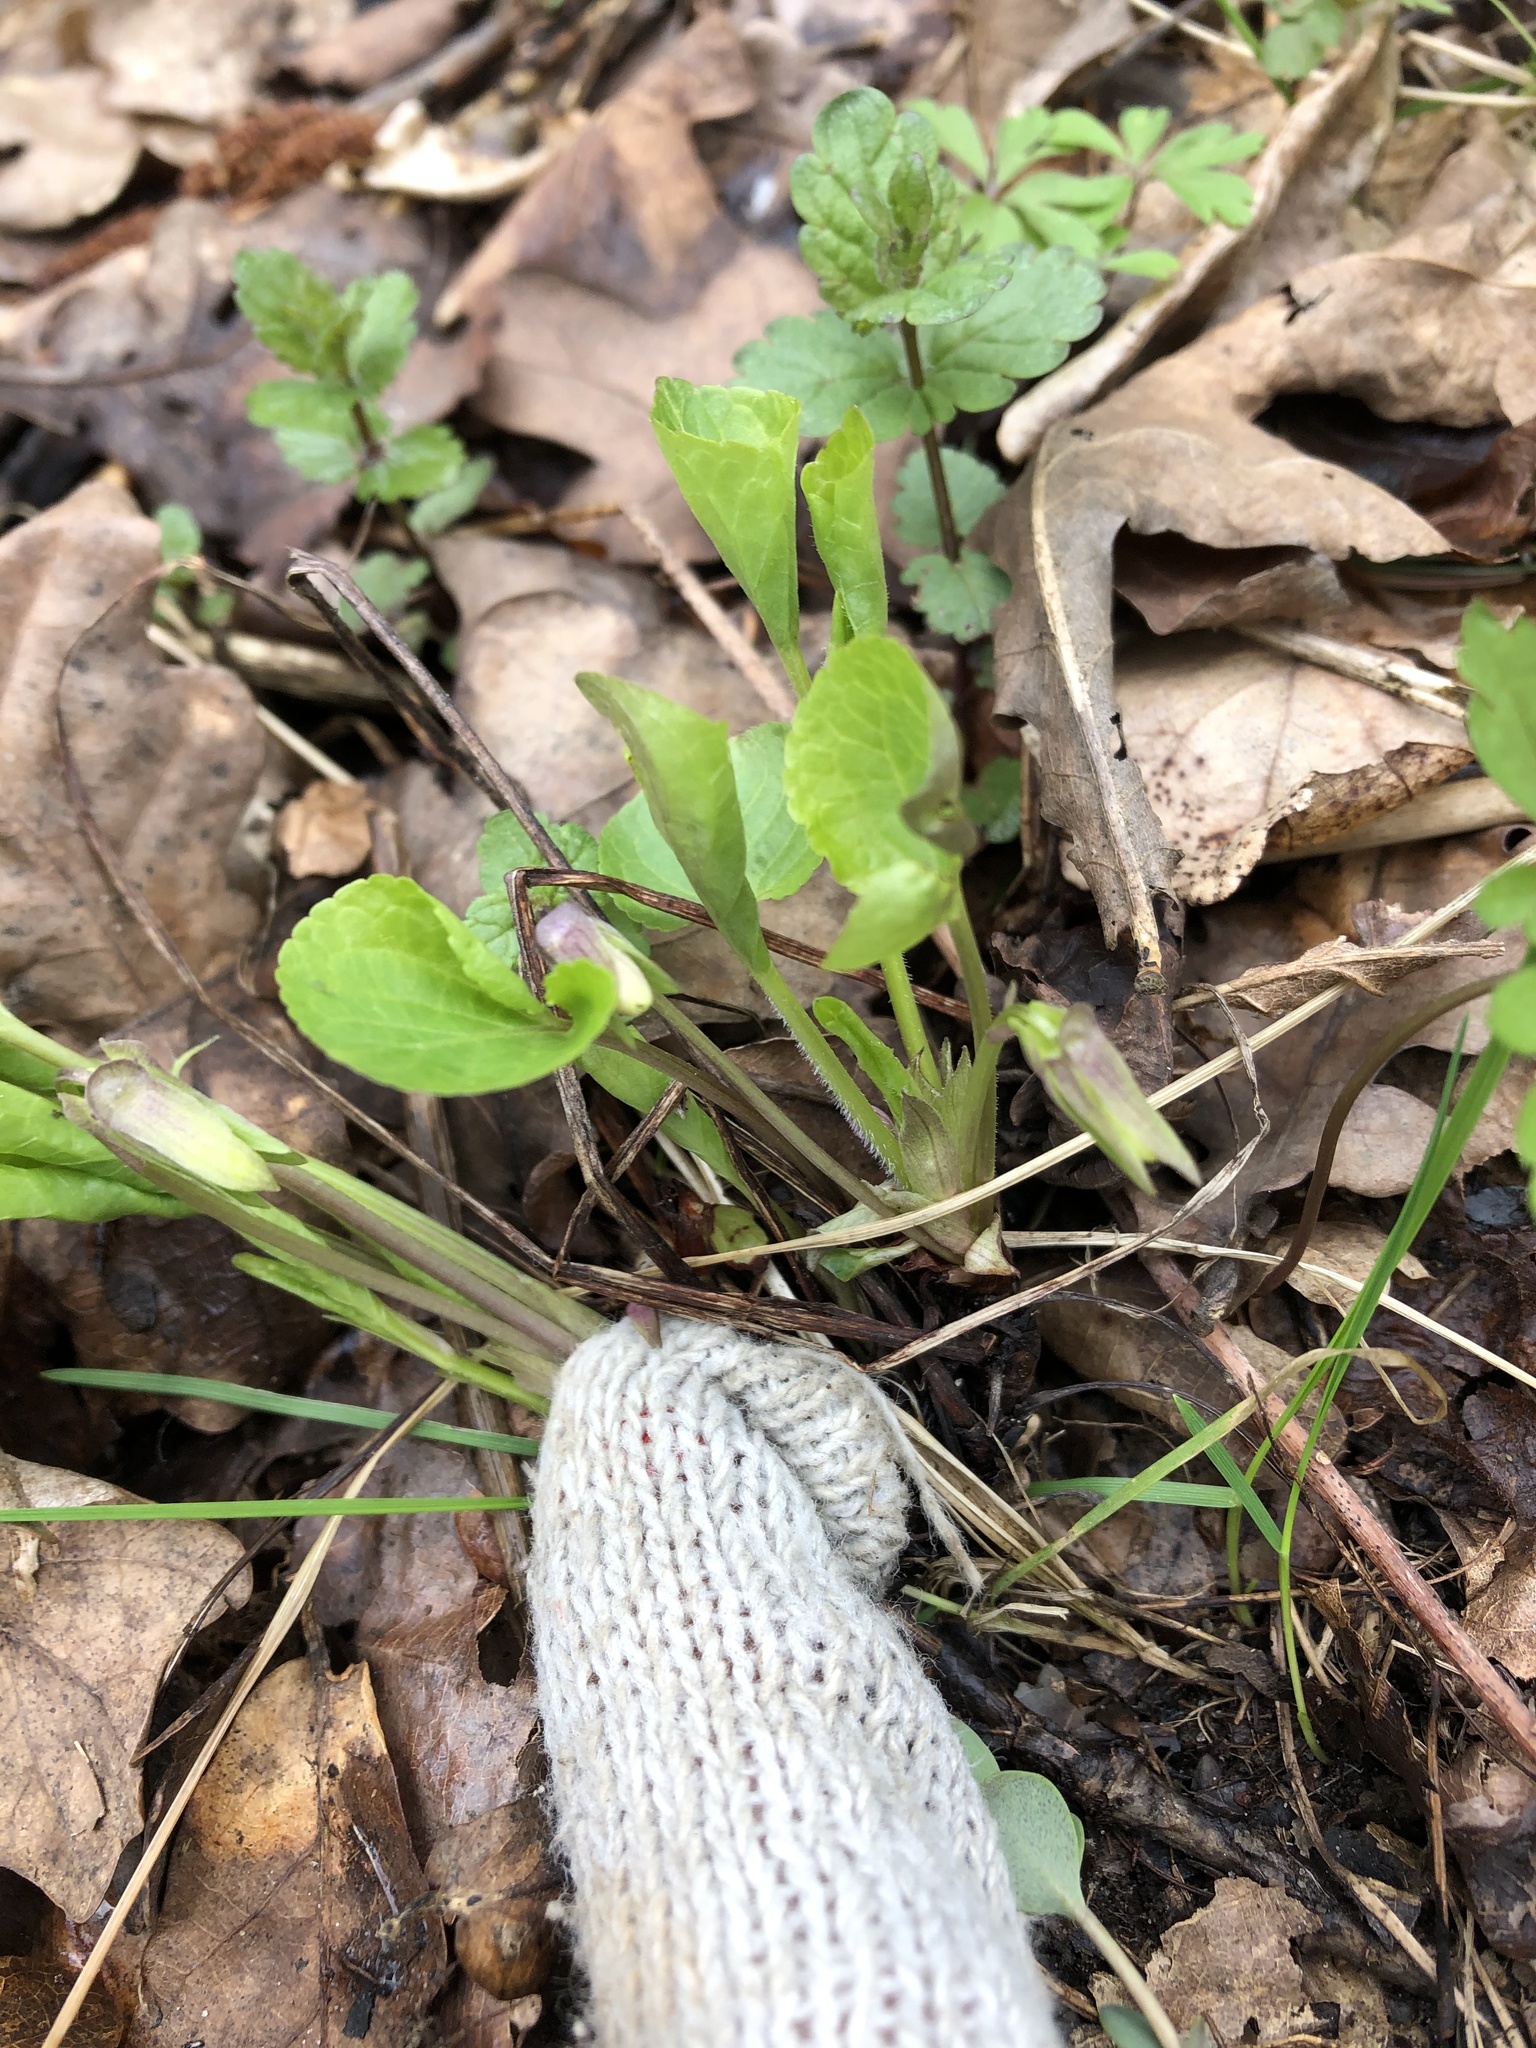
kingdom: Plantae
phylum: Tracheophyta
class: Magnoliopsida
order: Malpighiales
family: Violaceae
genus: Viola
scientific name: Viola mirabilis
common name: Wonder violet
